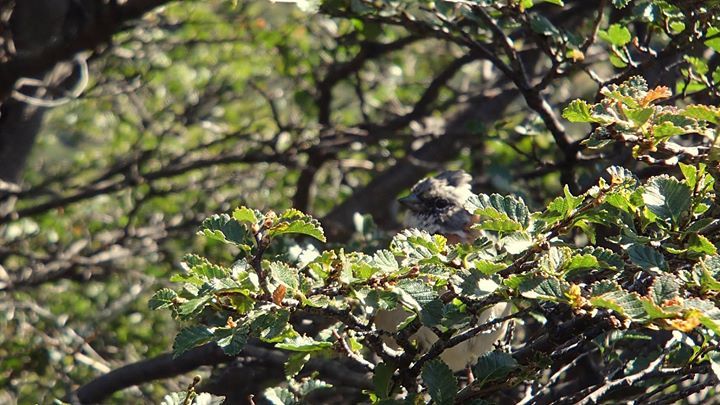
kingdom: Animalia
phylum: Chordata
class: Aves
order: Passeriformes
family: Passerellidae
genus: Zonotrichia
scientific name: Zonotrichia capensis
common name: Rufous-collared sparrow
